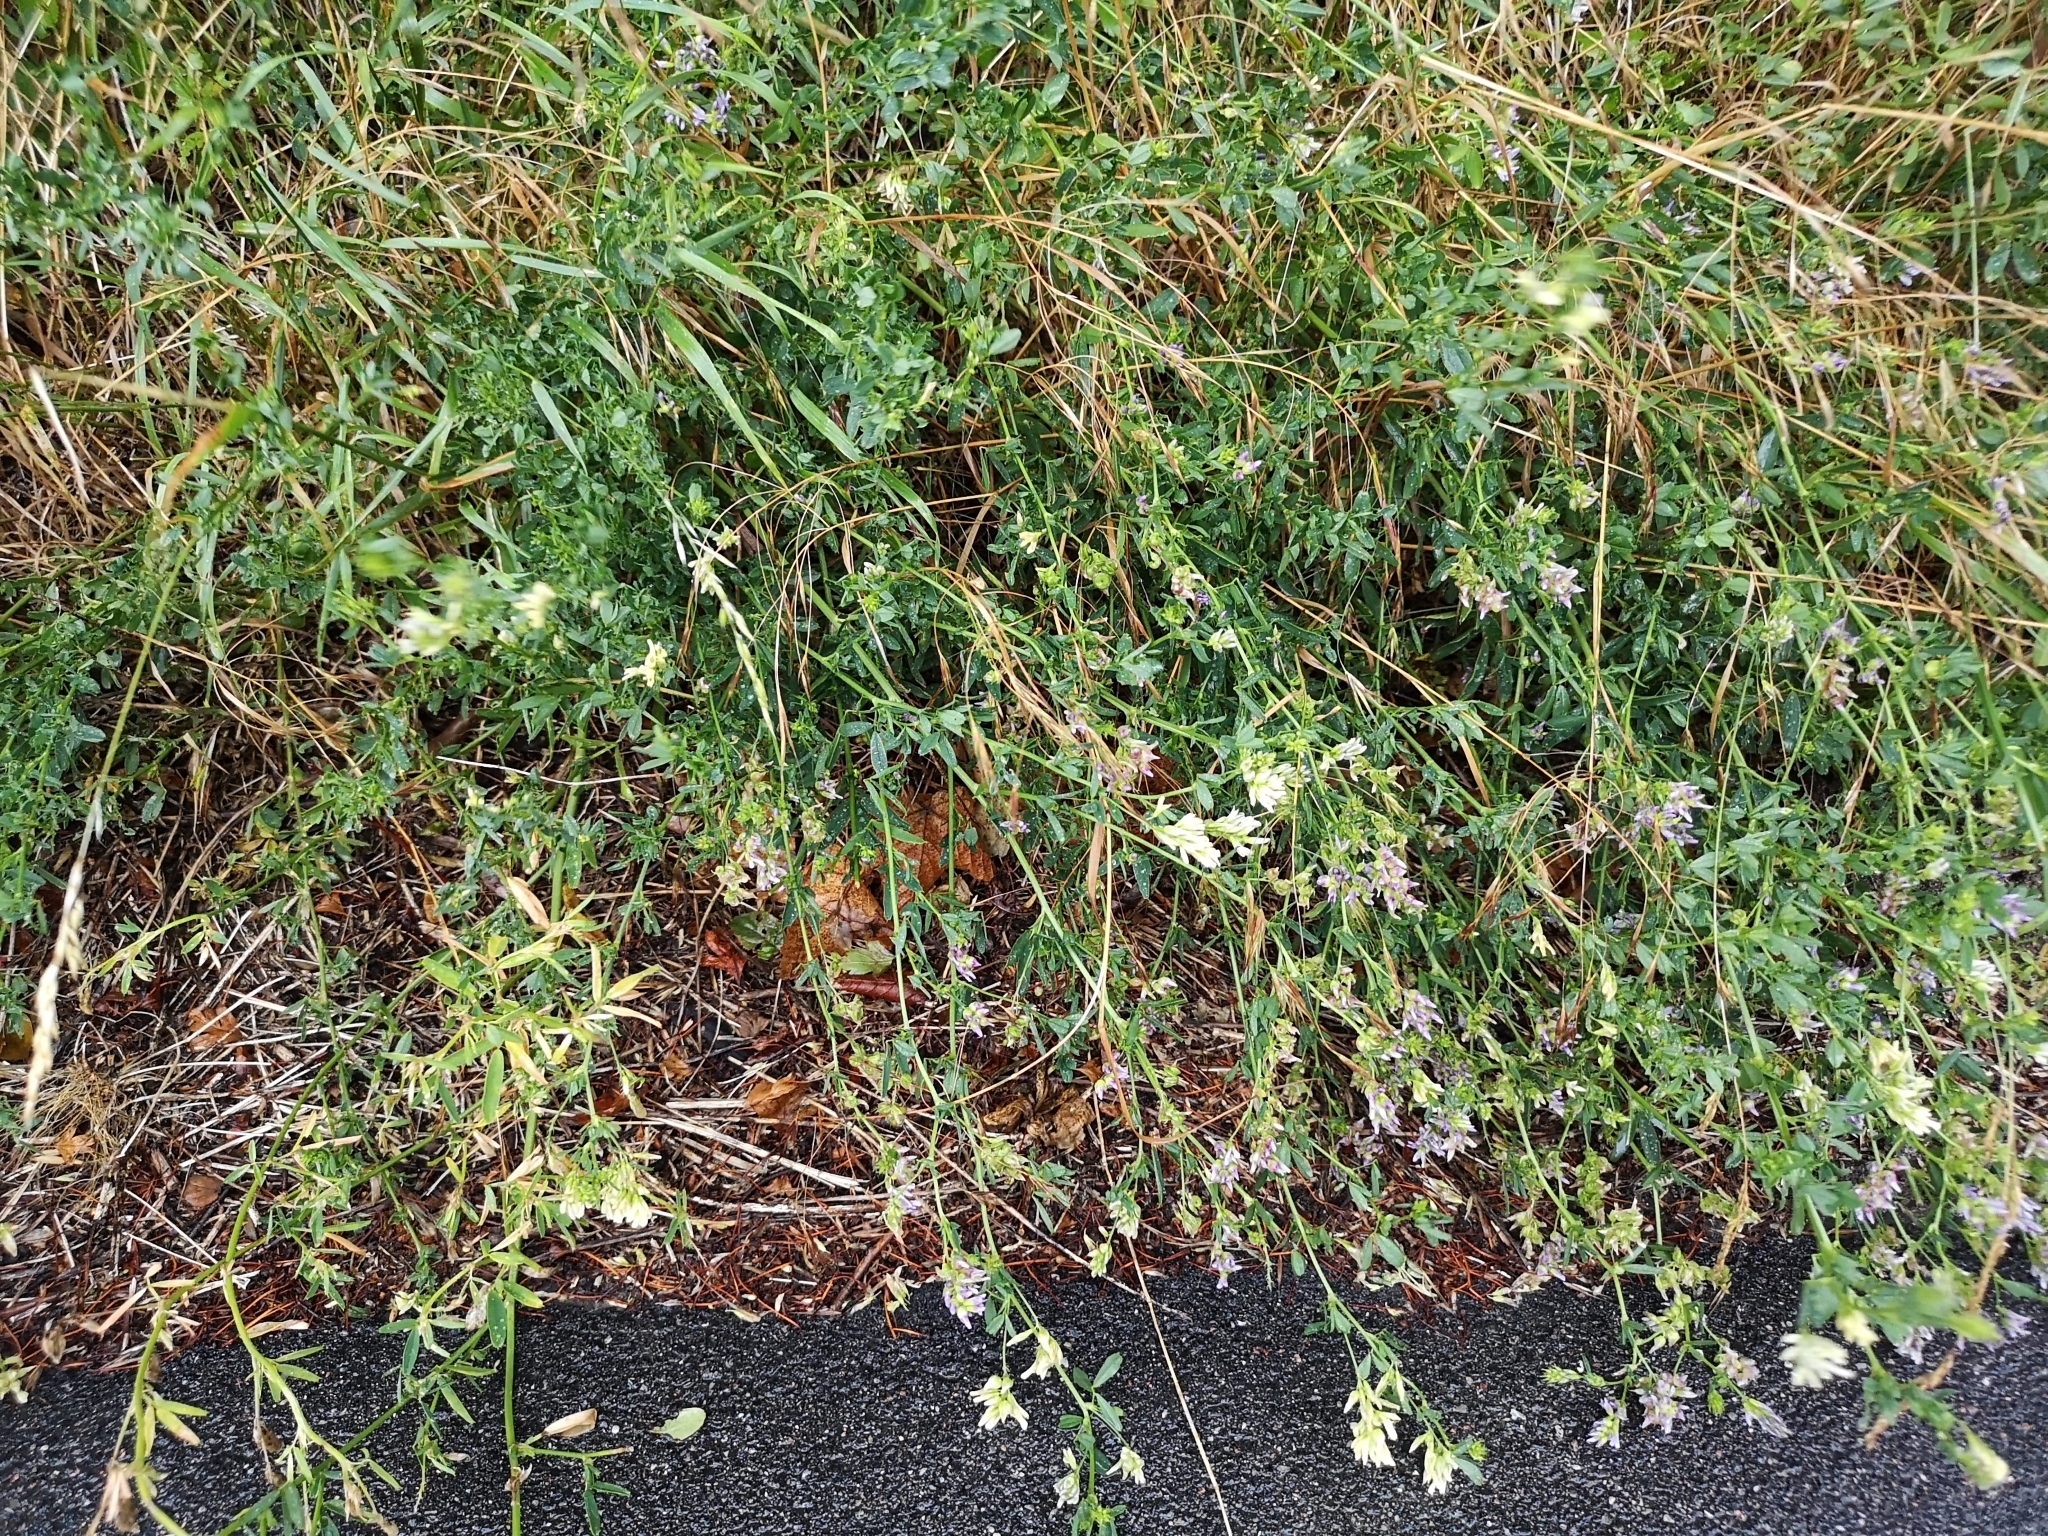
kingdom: Plantae
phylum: Tracheophyta
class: Magnoliopsida
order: Fabales
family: Fabaceae
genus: Medicago
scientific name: Medicago varia
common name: Sand lucerne
